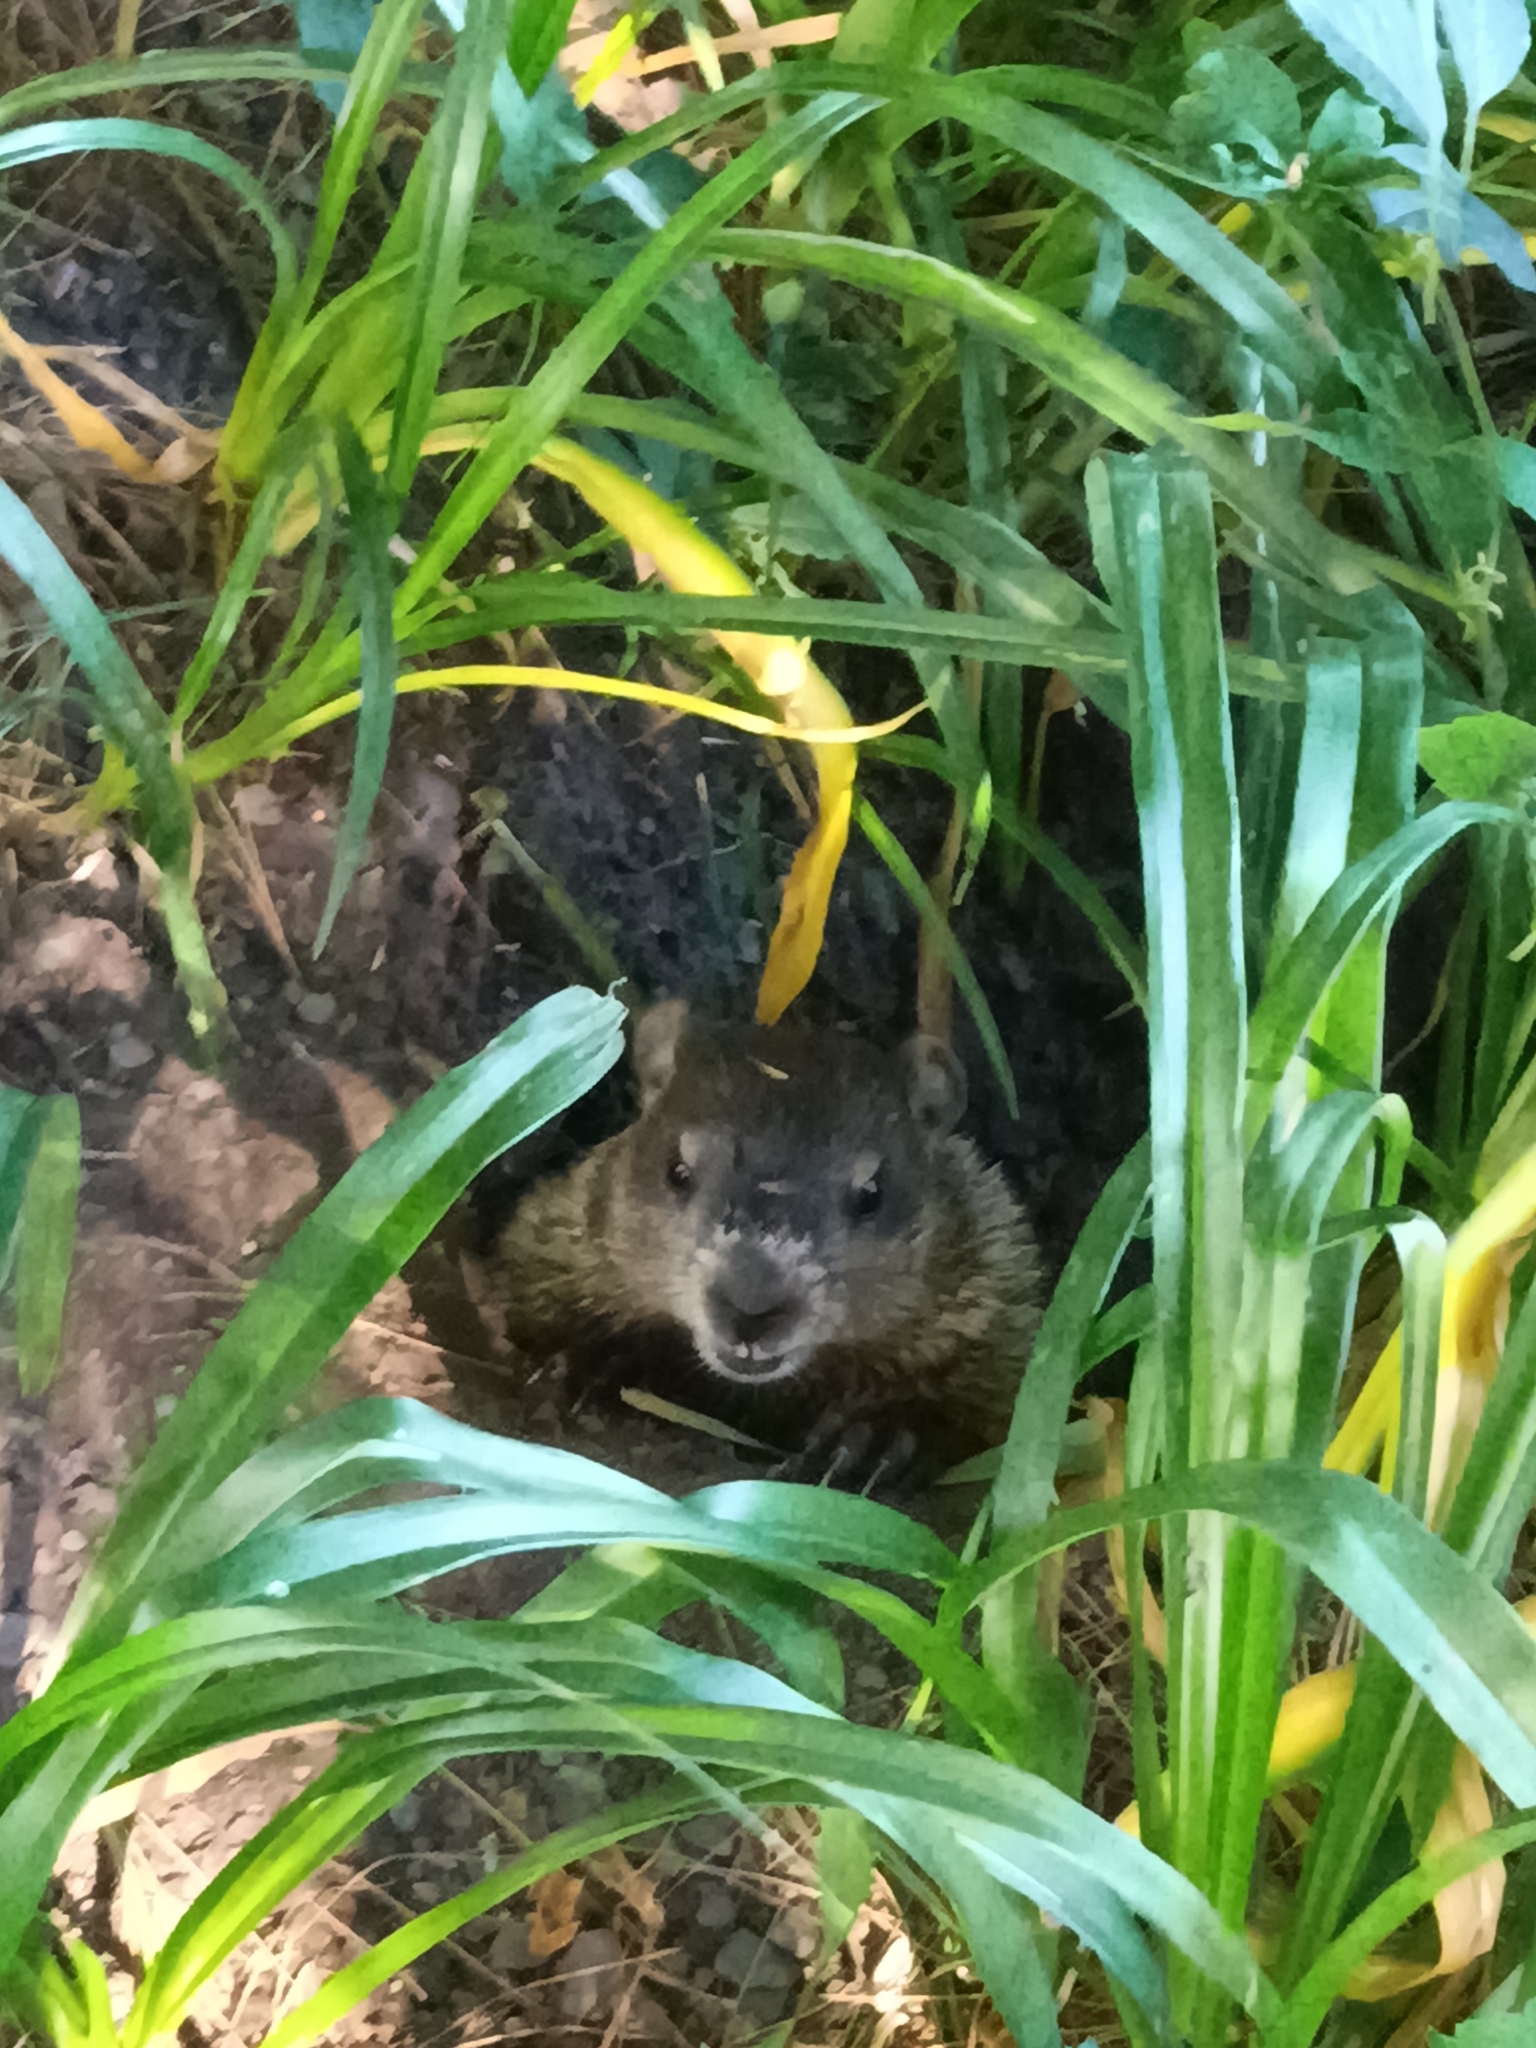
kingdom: Animalia
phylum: Chordata
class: Mammalia
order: Rodentia
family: Sciuridae
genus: Marmota
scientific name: Marmota monax
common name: Groundhog
